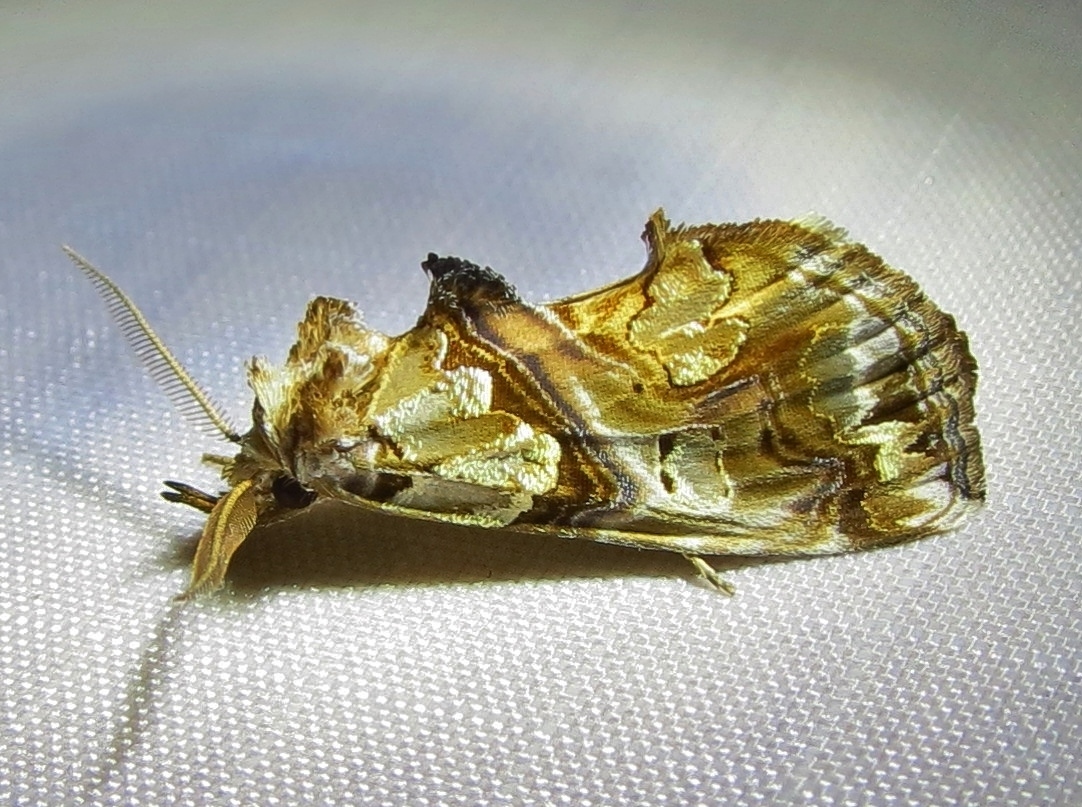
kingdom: Animalia
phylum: Arthropoda
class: Insecta
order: Lepidoptera
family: Erebidae
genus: Plusiodonta
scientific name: Plusiodonta compressipalpis
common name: Moonseed moth
